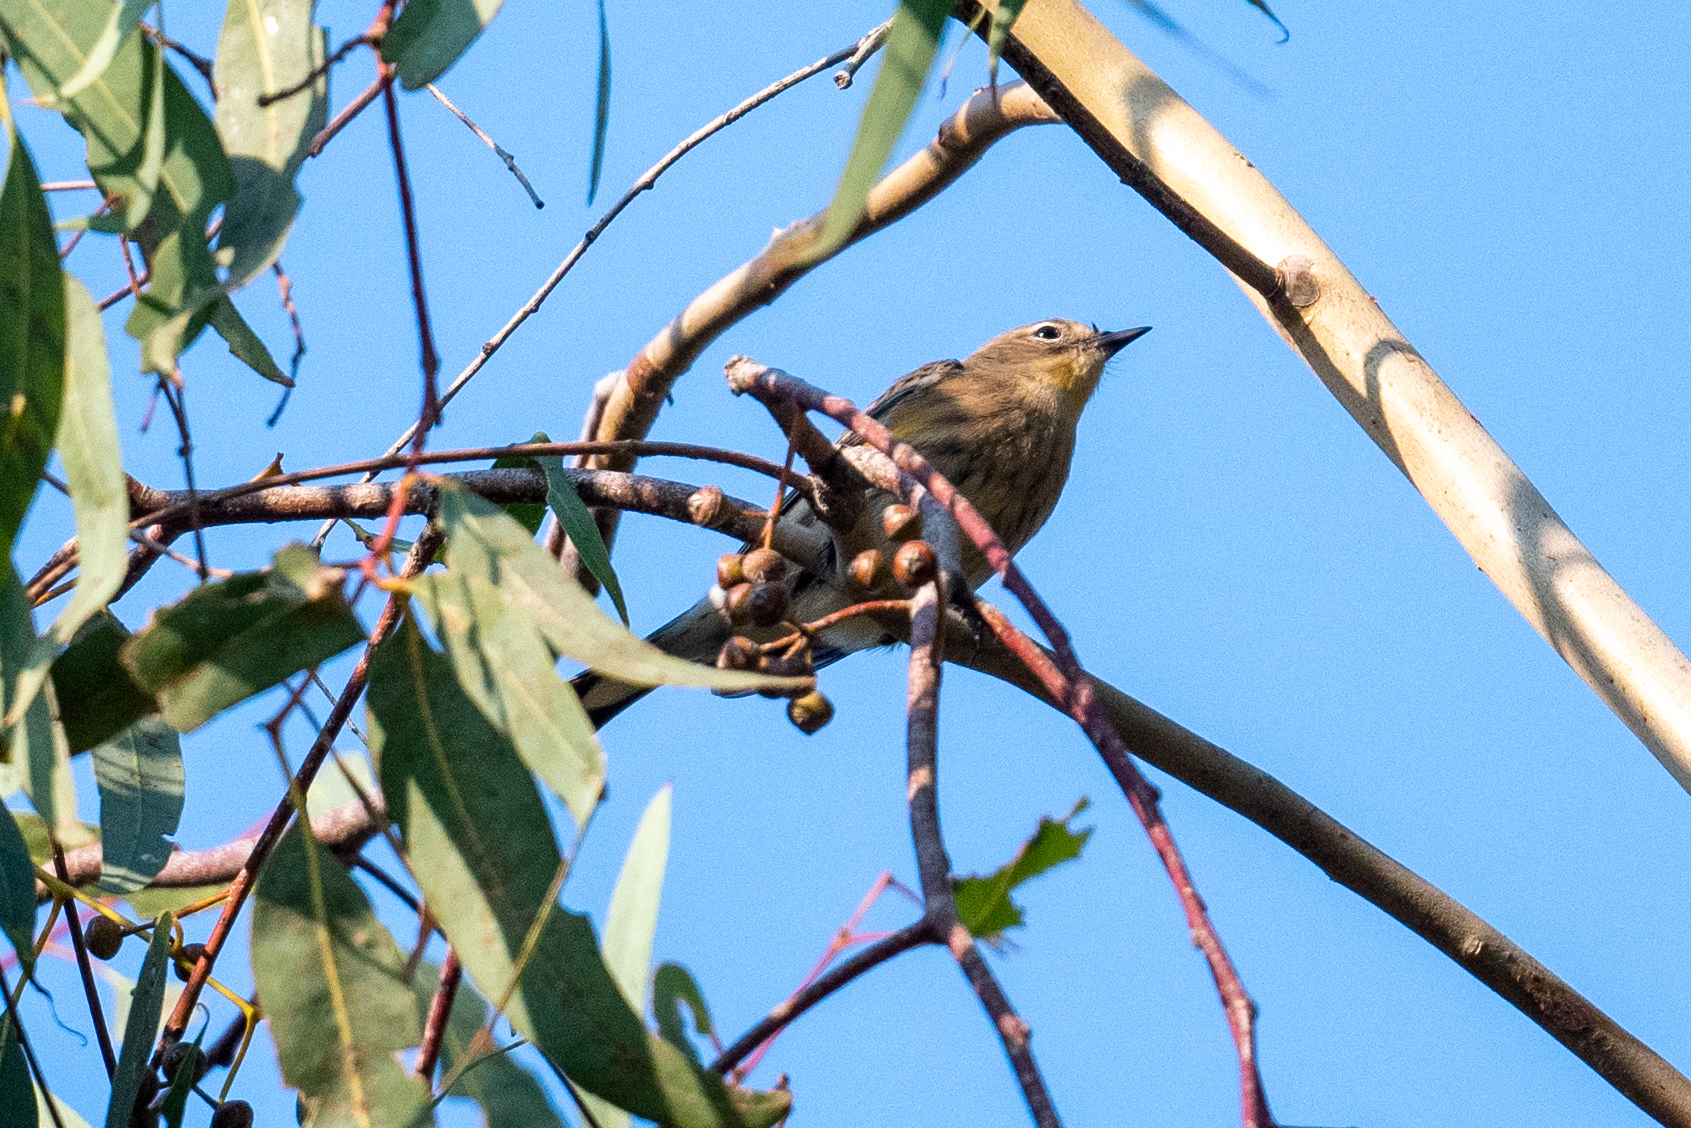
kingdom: Animalia
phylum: Chordata
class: Aves
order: Passeriformes
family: Parulidae
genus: Setophaga
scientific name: Setophaga coronata
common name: Myrtle warbler
